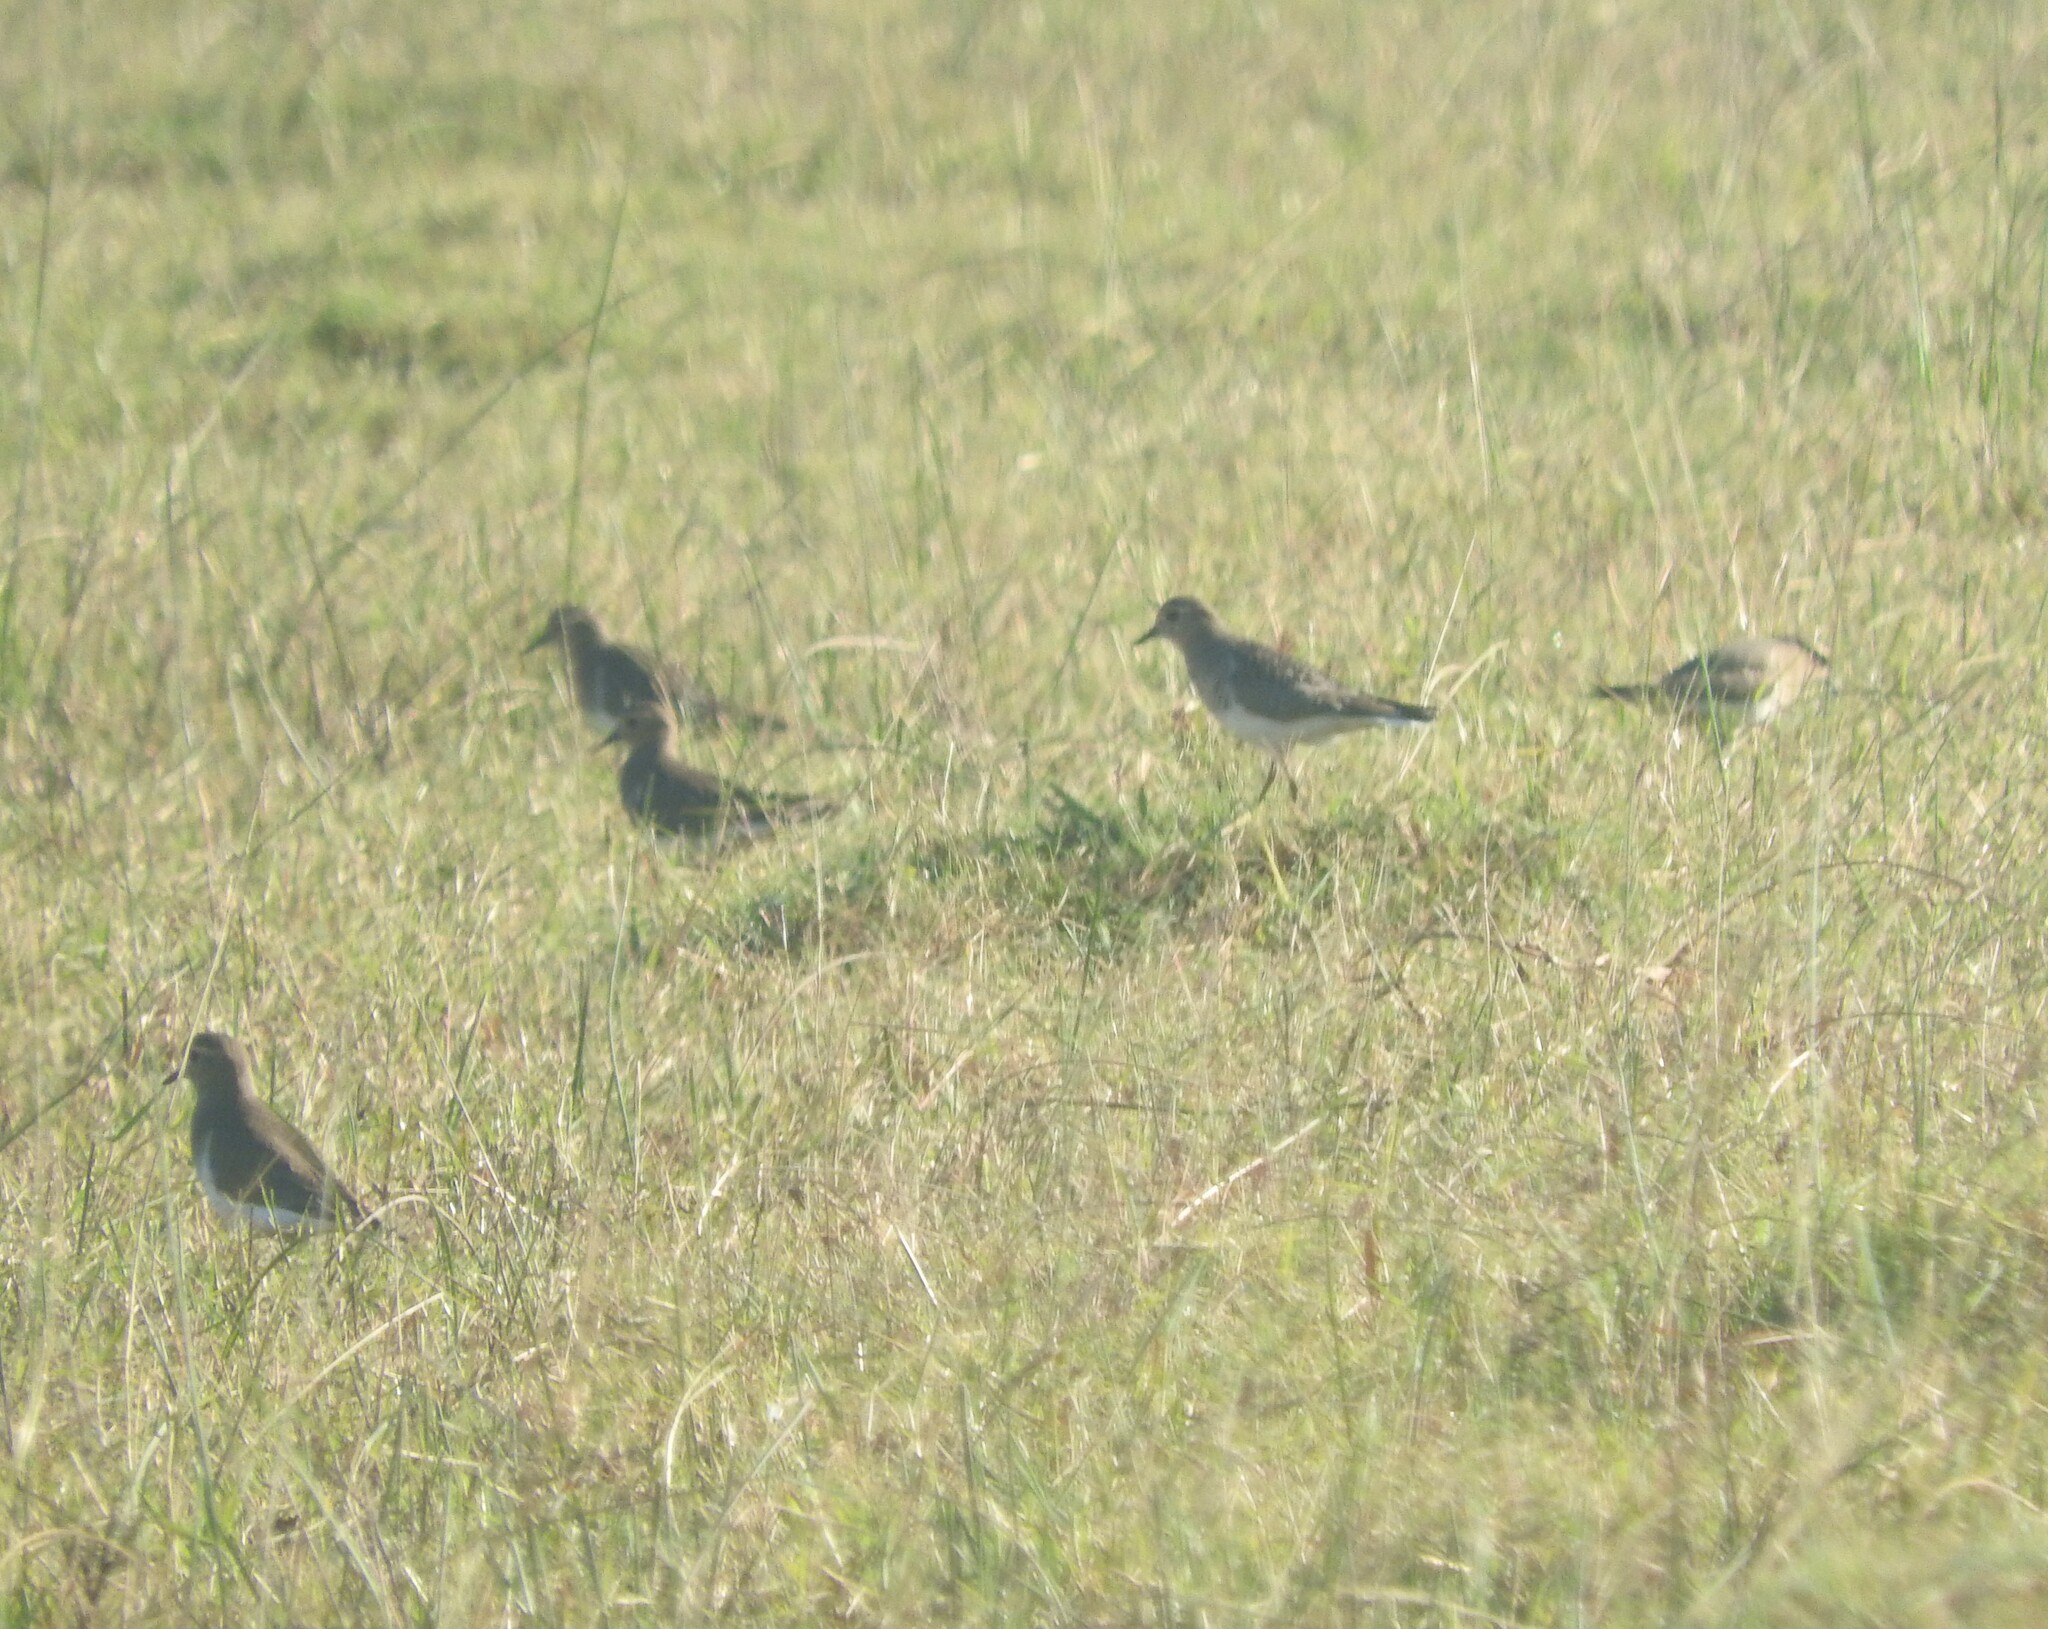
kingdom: Animalia
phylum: Chordata
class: Aves
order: Charadriiformes
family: Charadriidae
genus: Charadrius
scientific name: Charadrius modestus
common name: Rufous-chested plover
